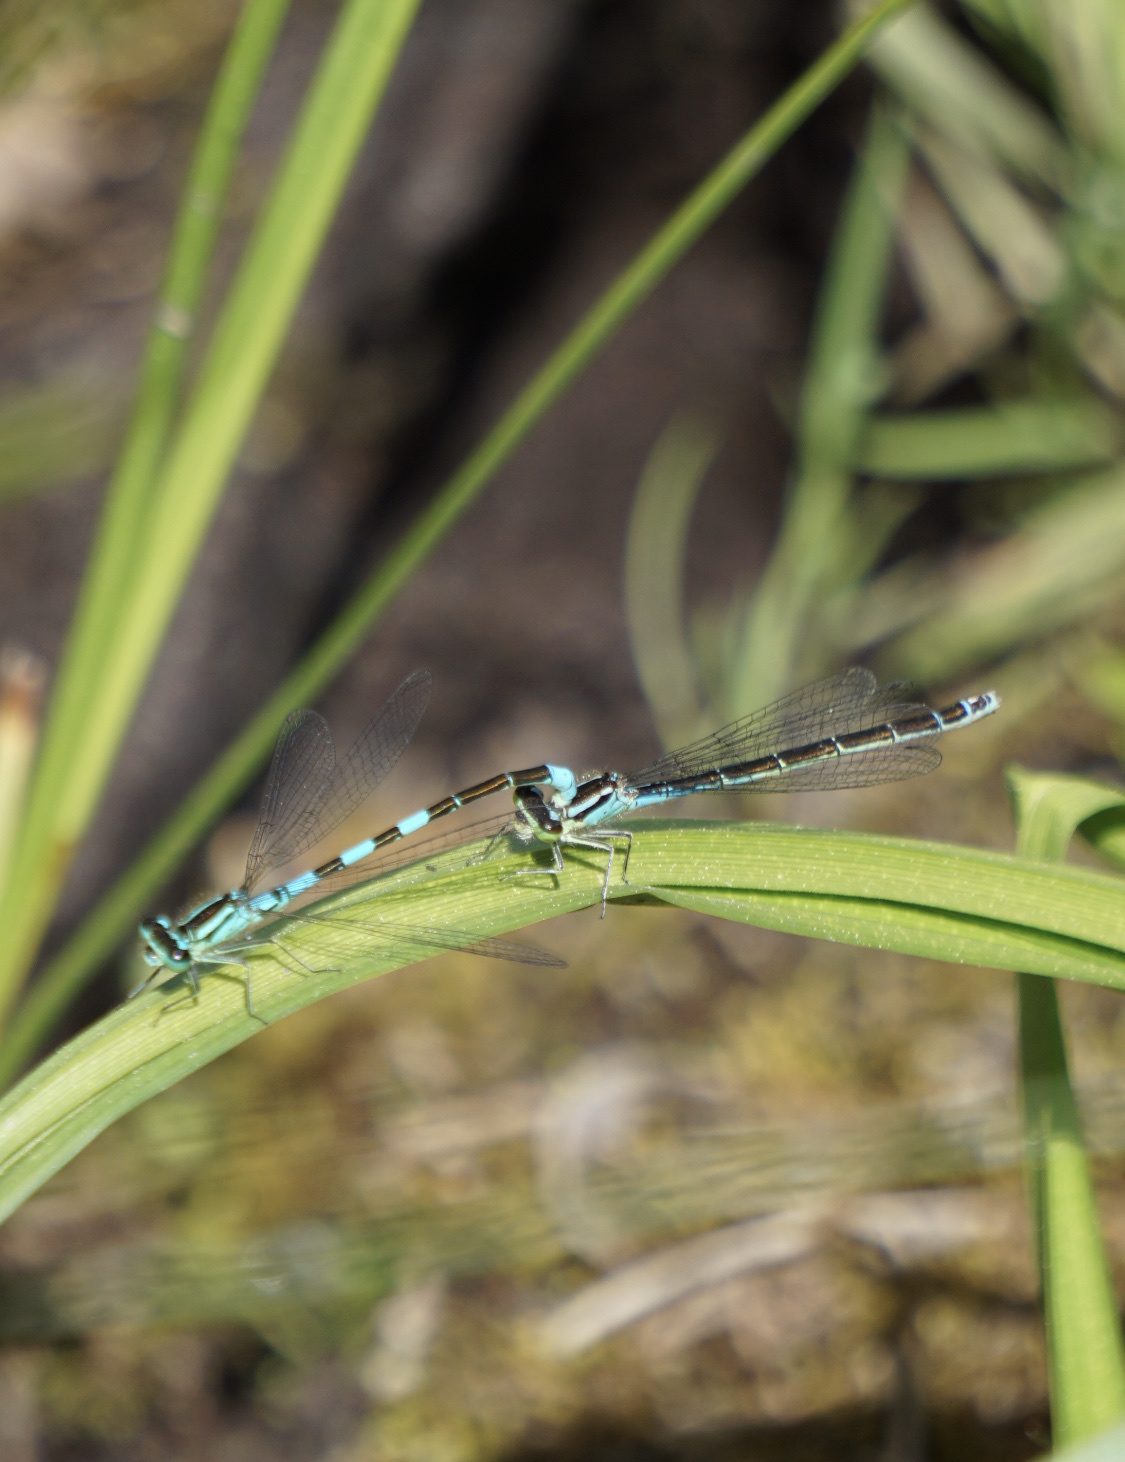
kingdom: Animalia
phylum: Arthropoda
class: Insecta
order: Odonata
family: Coenagrionidae
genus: Coenagrion
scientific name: Coenagrion resolutum
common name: Taiga bluet
